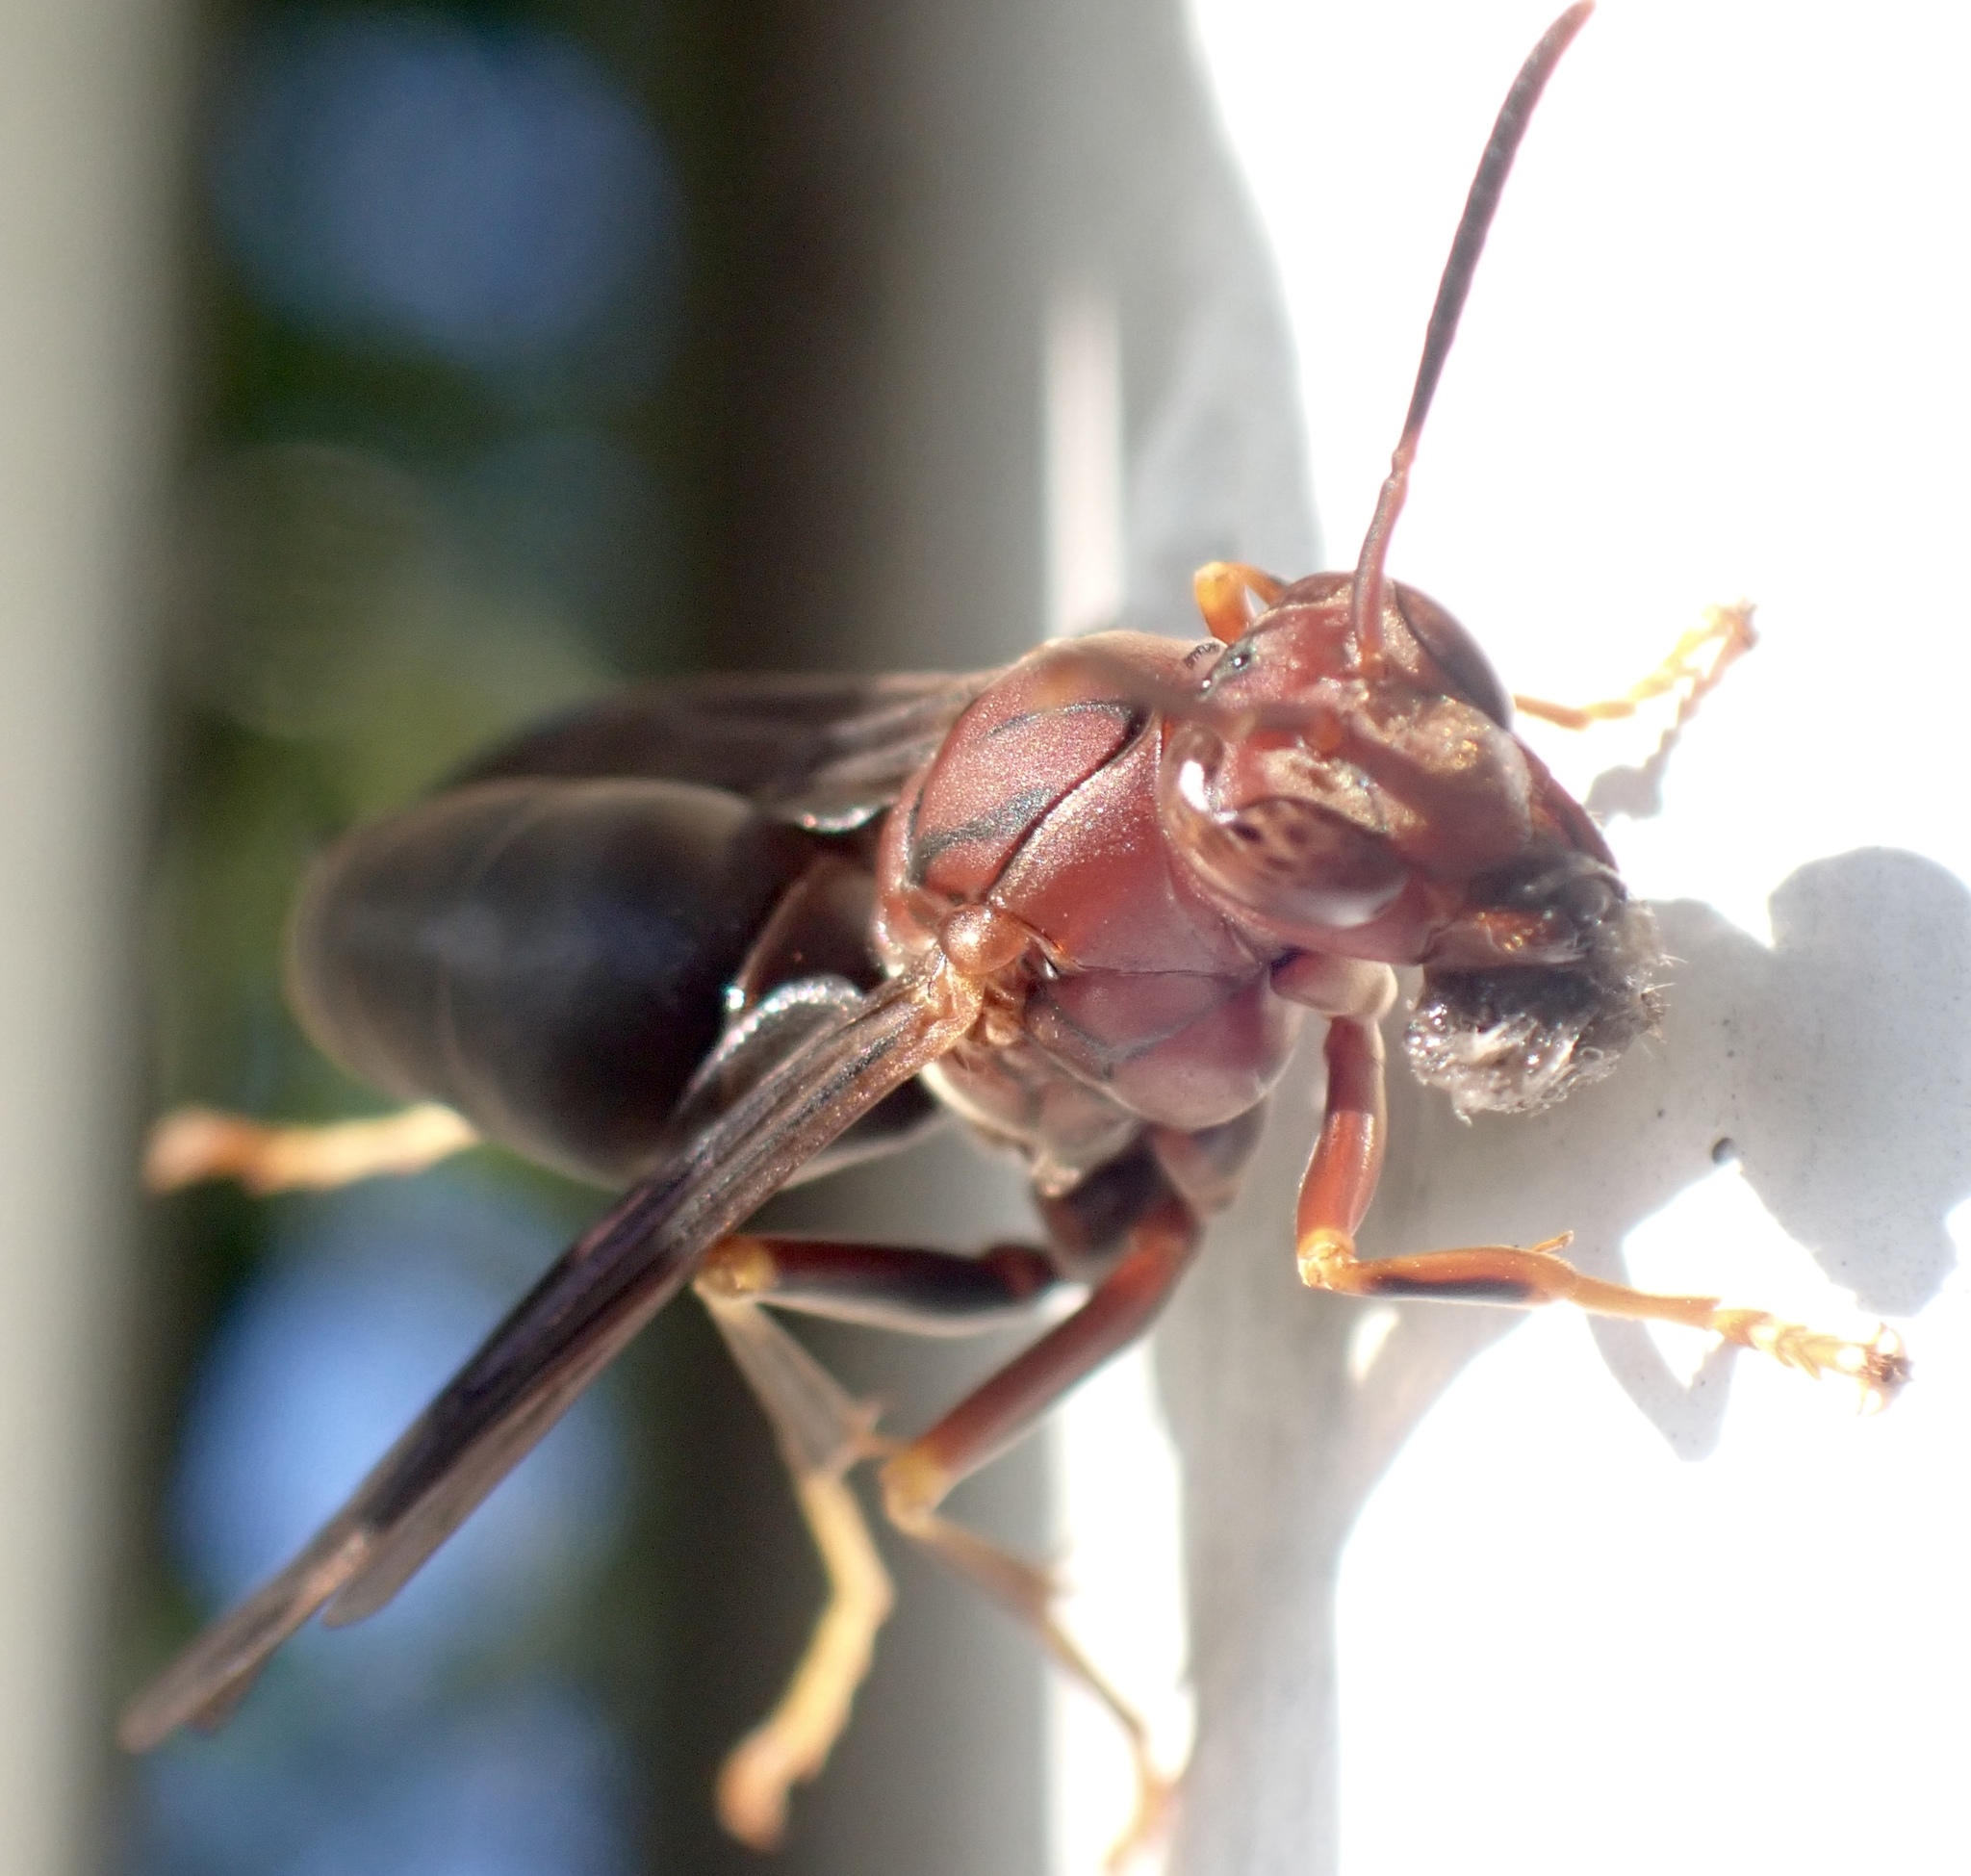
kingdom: Animalia
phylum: Arthropoda
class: Insecta
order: Hymenoptera
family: Eumenidae
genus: Polistes
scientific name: Polistes metricus
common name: Metric paper wasp
